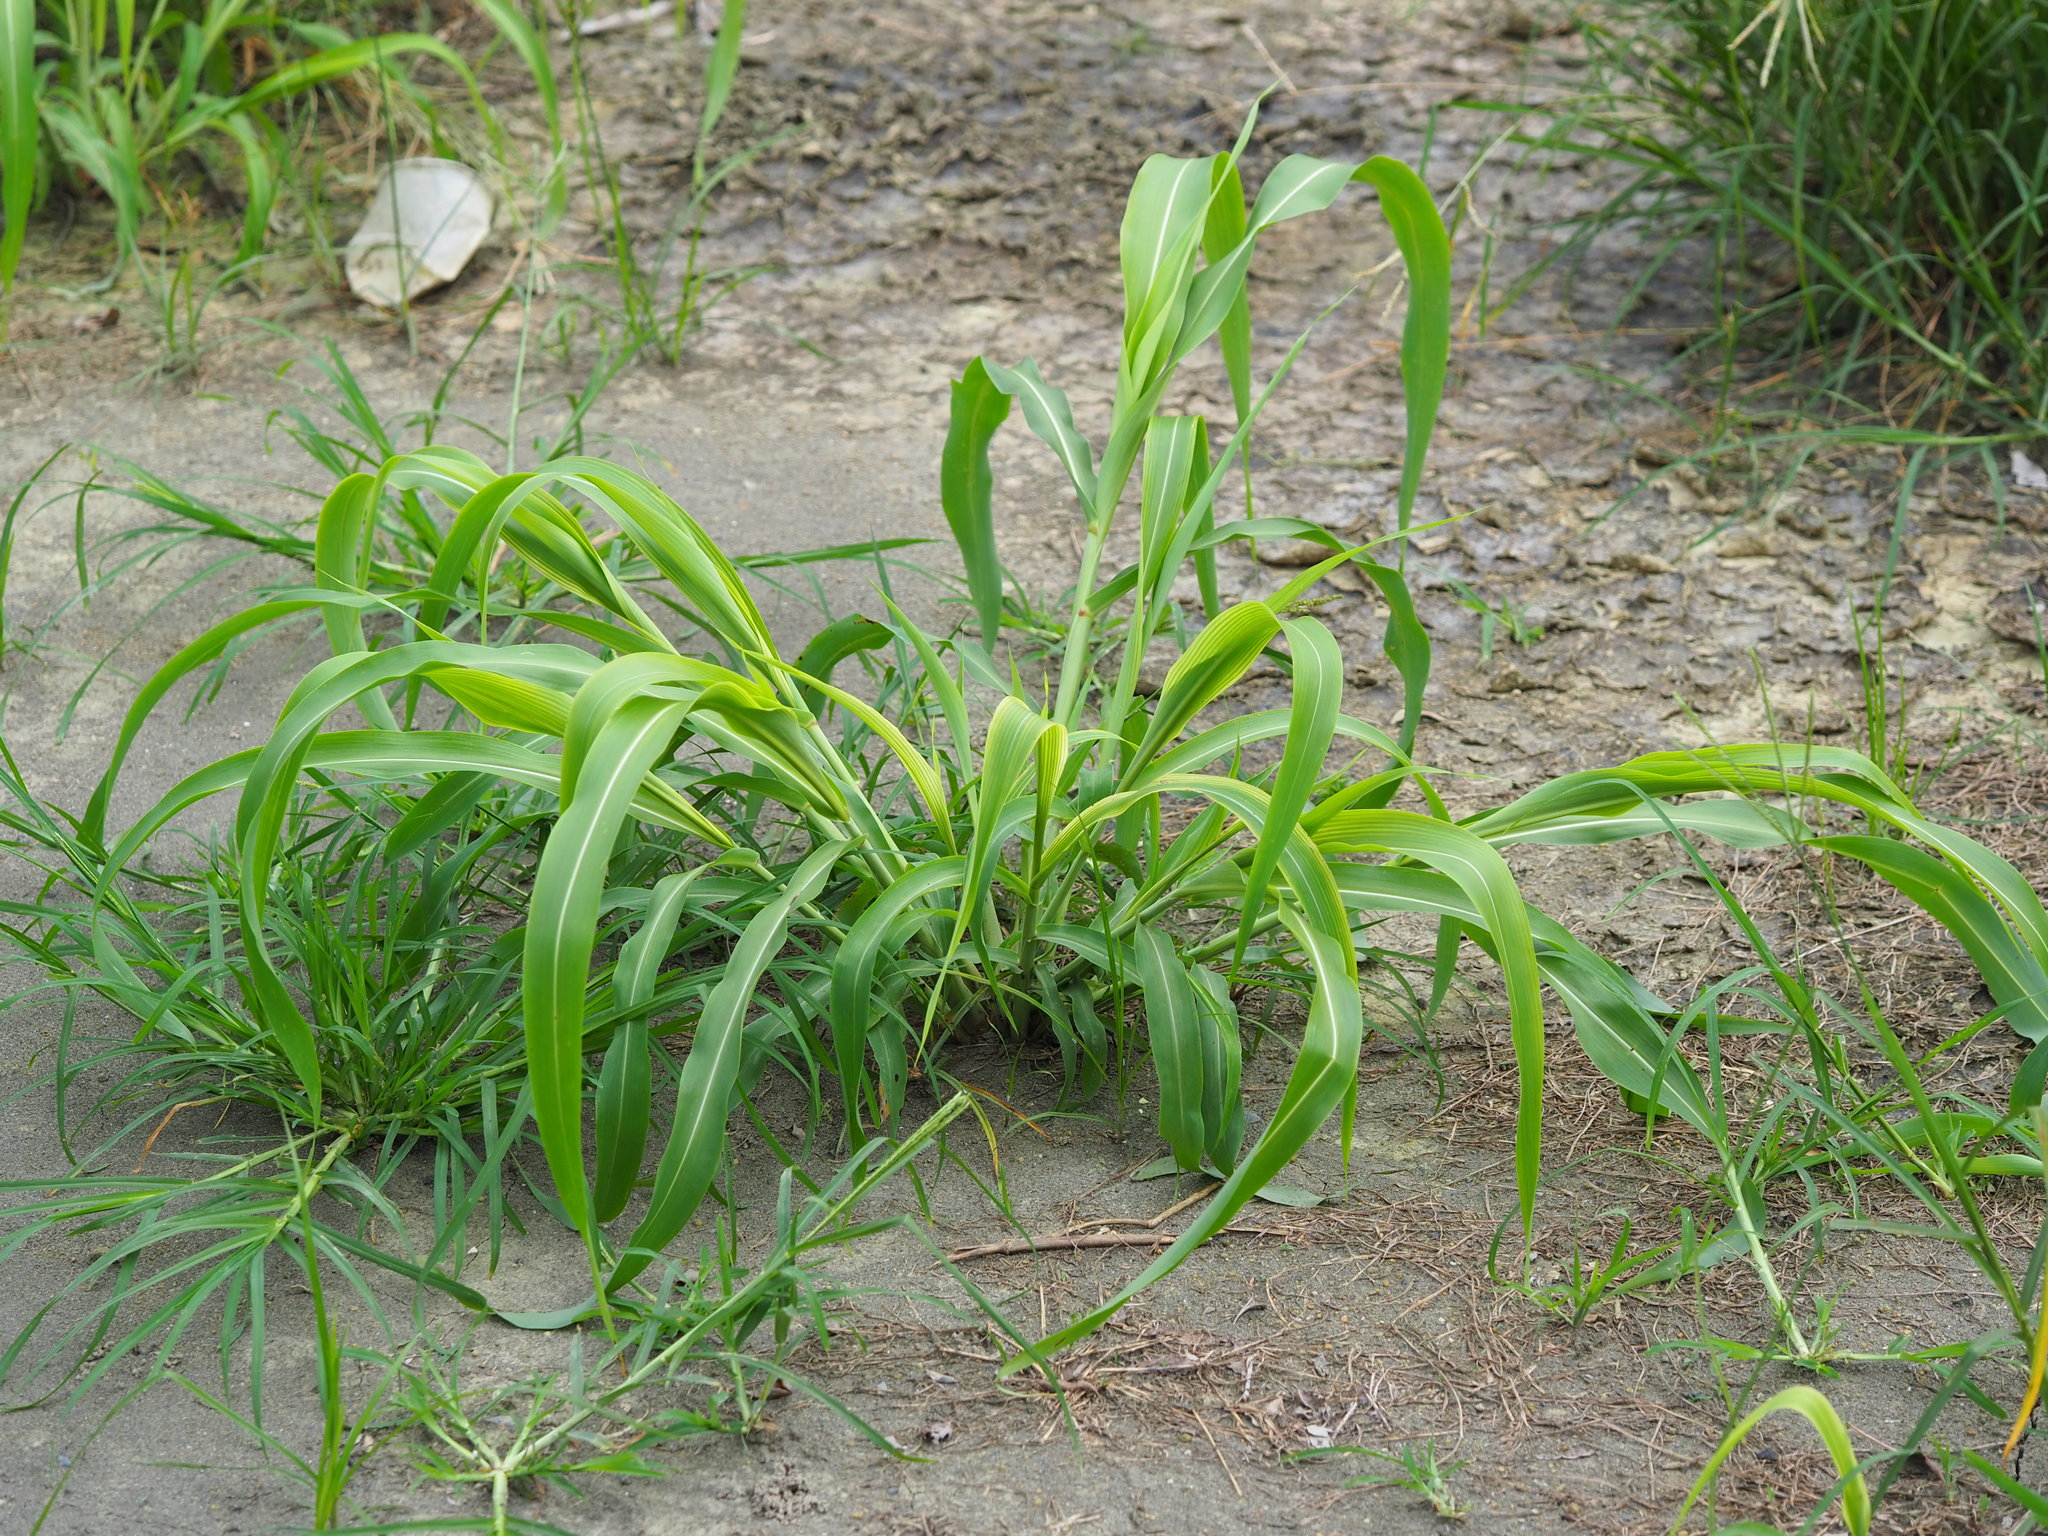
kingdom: Plantae
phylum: Tracheophyta
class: Liliopsida
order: Poales
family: Poaceae
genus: Sorghum
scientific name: Sorghum arundinaceum
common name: Sorghum
